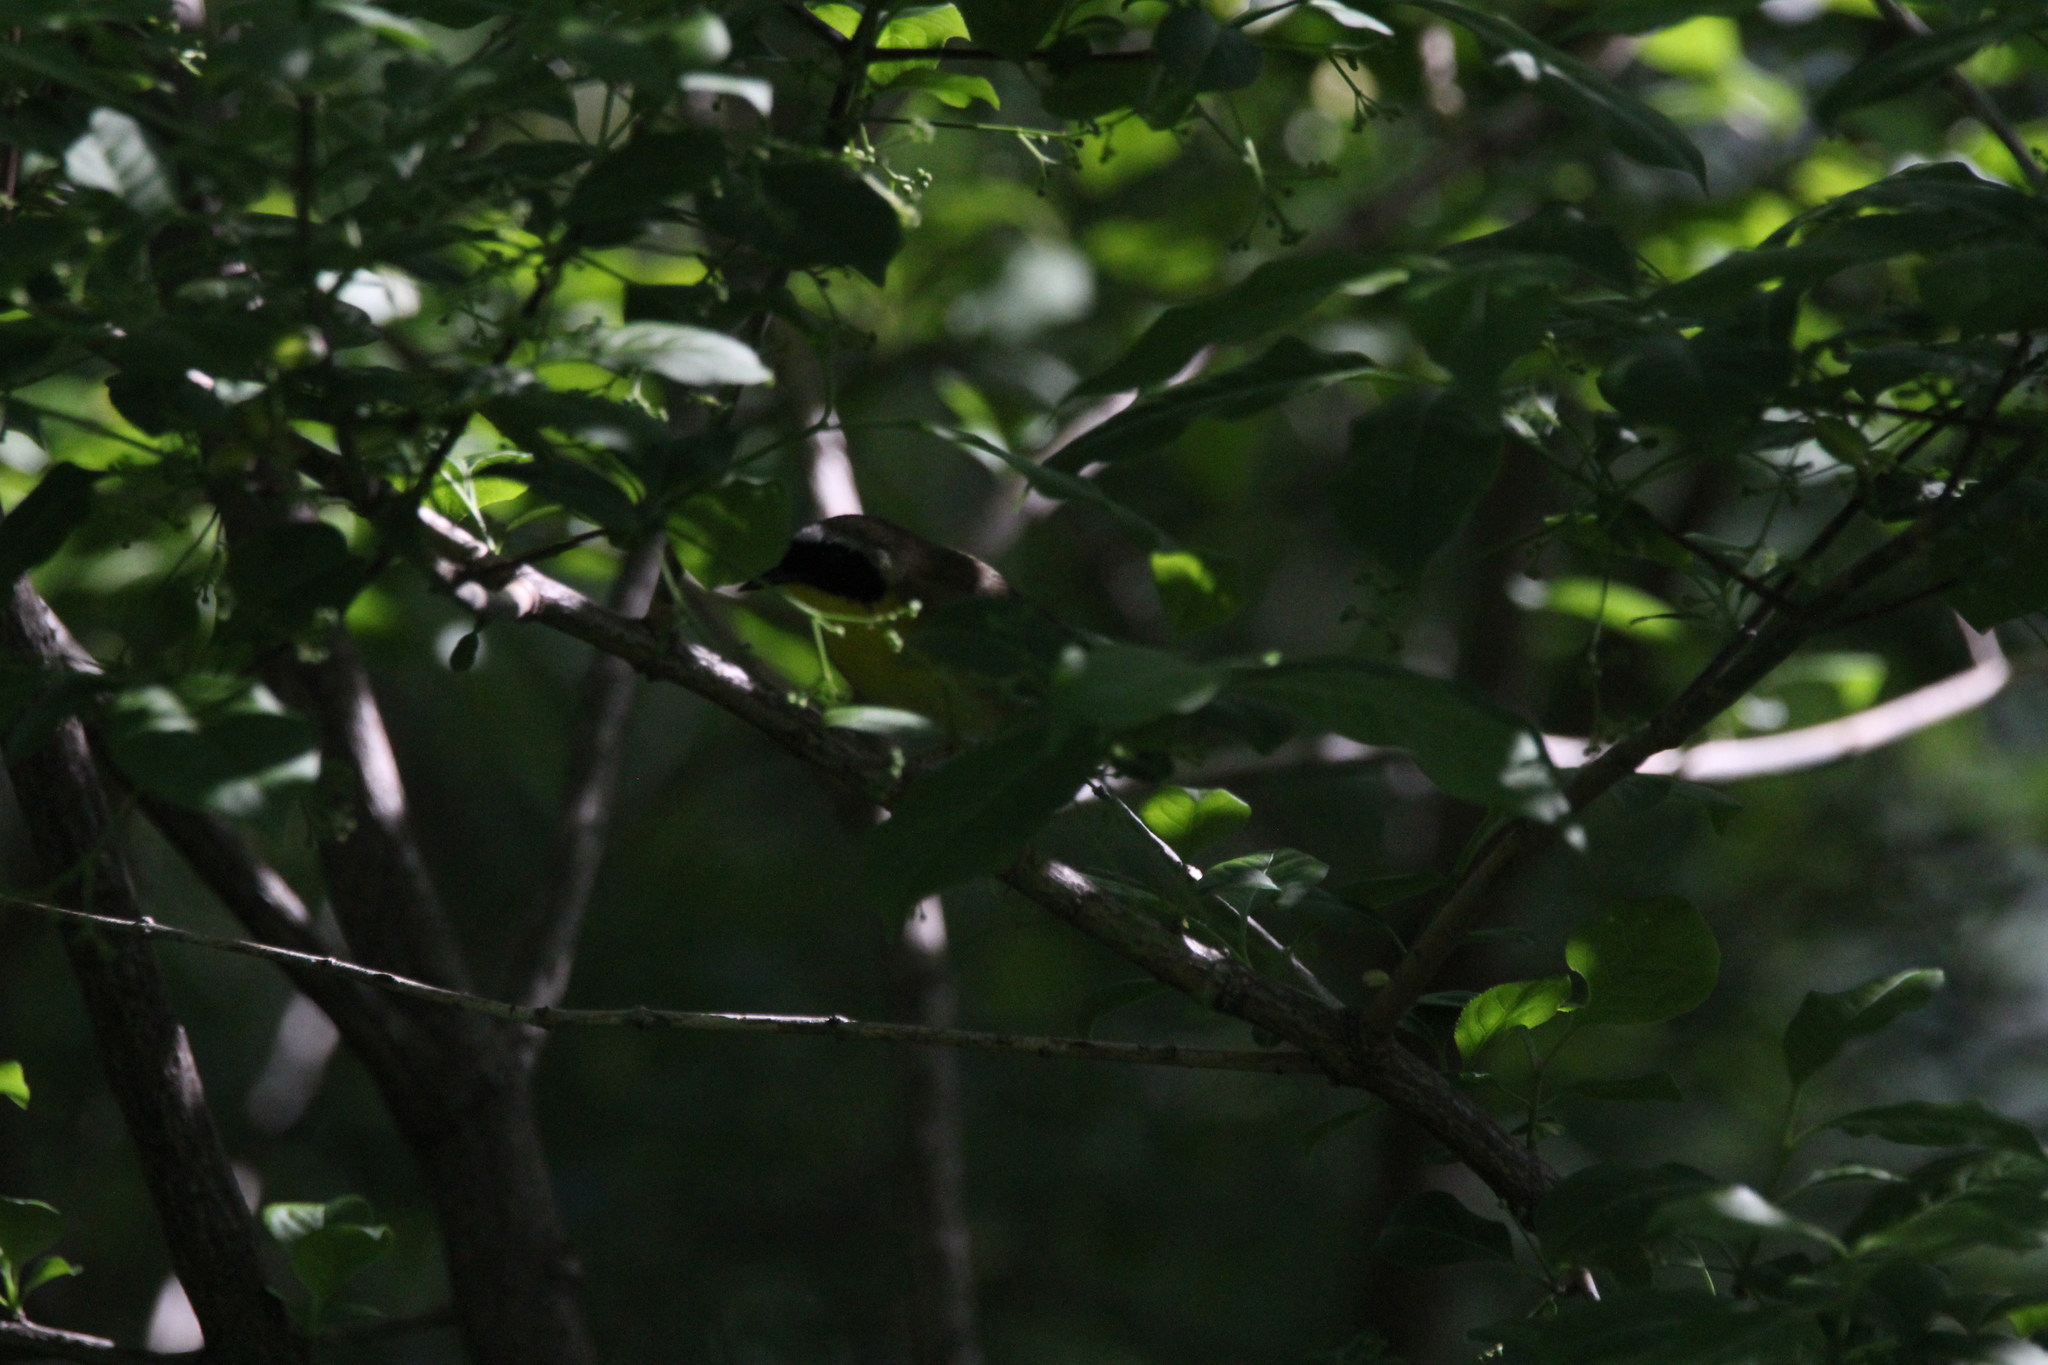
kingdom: Animalia
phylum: Chordata
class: Aves
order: Passeriformes
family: Parulidae
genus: Geothlypis
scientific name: Geothlypis trichas
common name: Common yellowthroat
